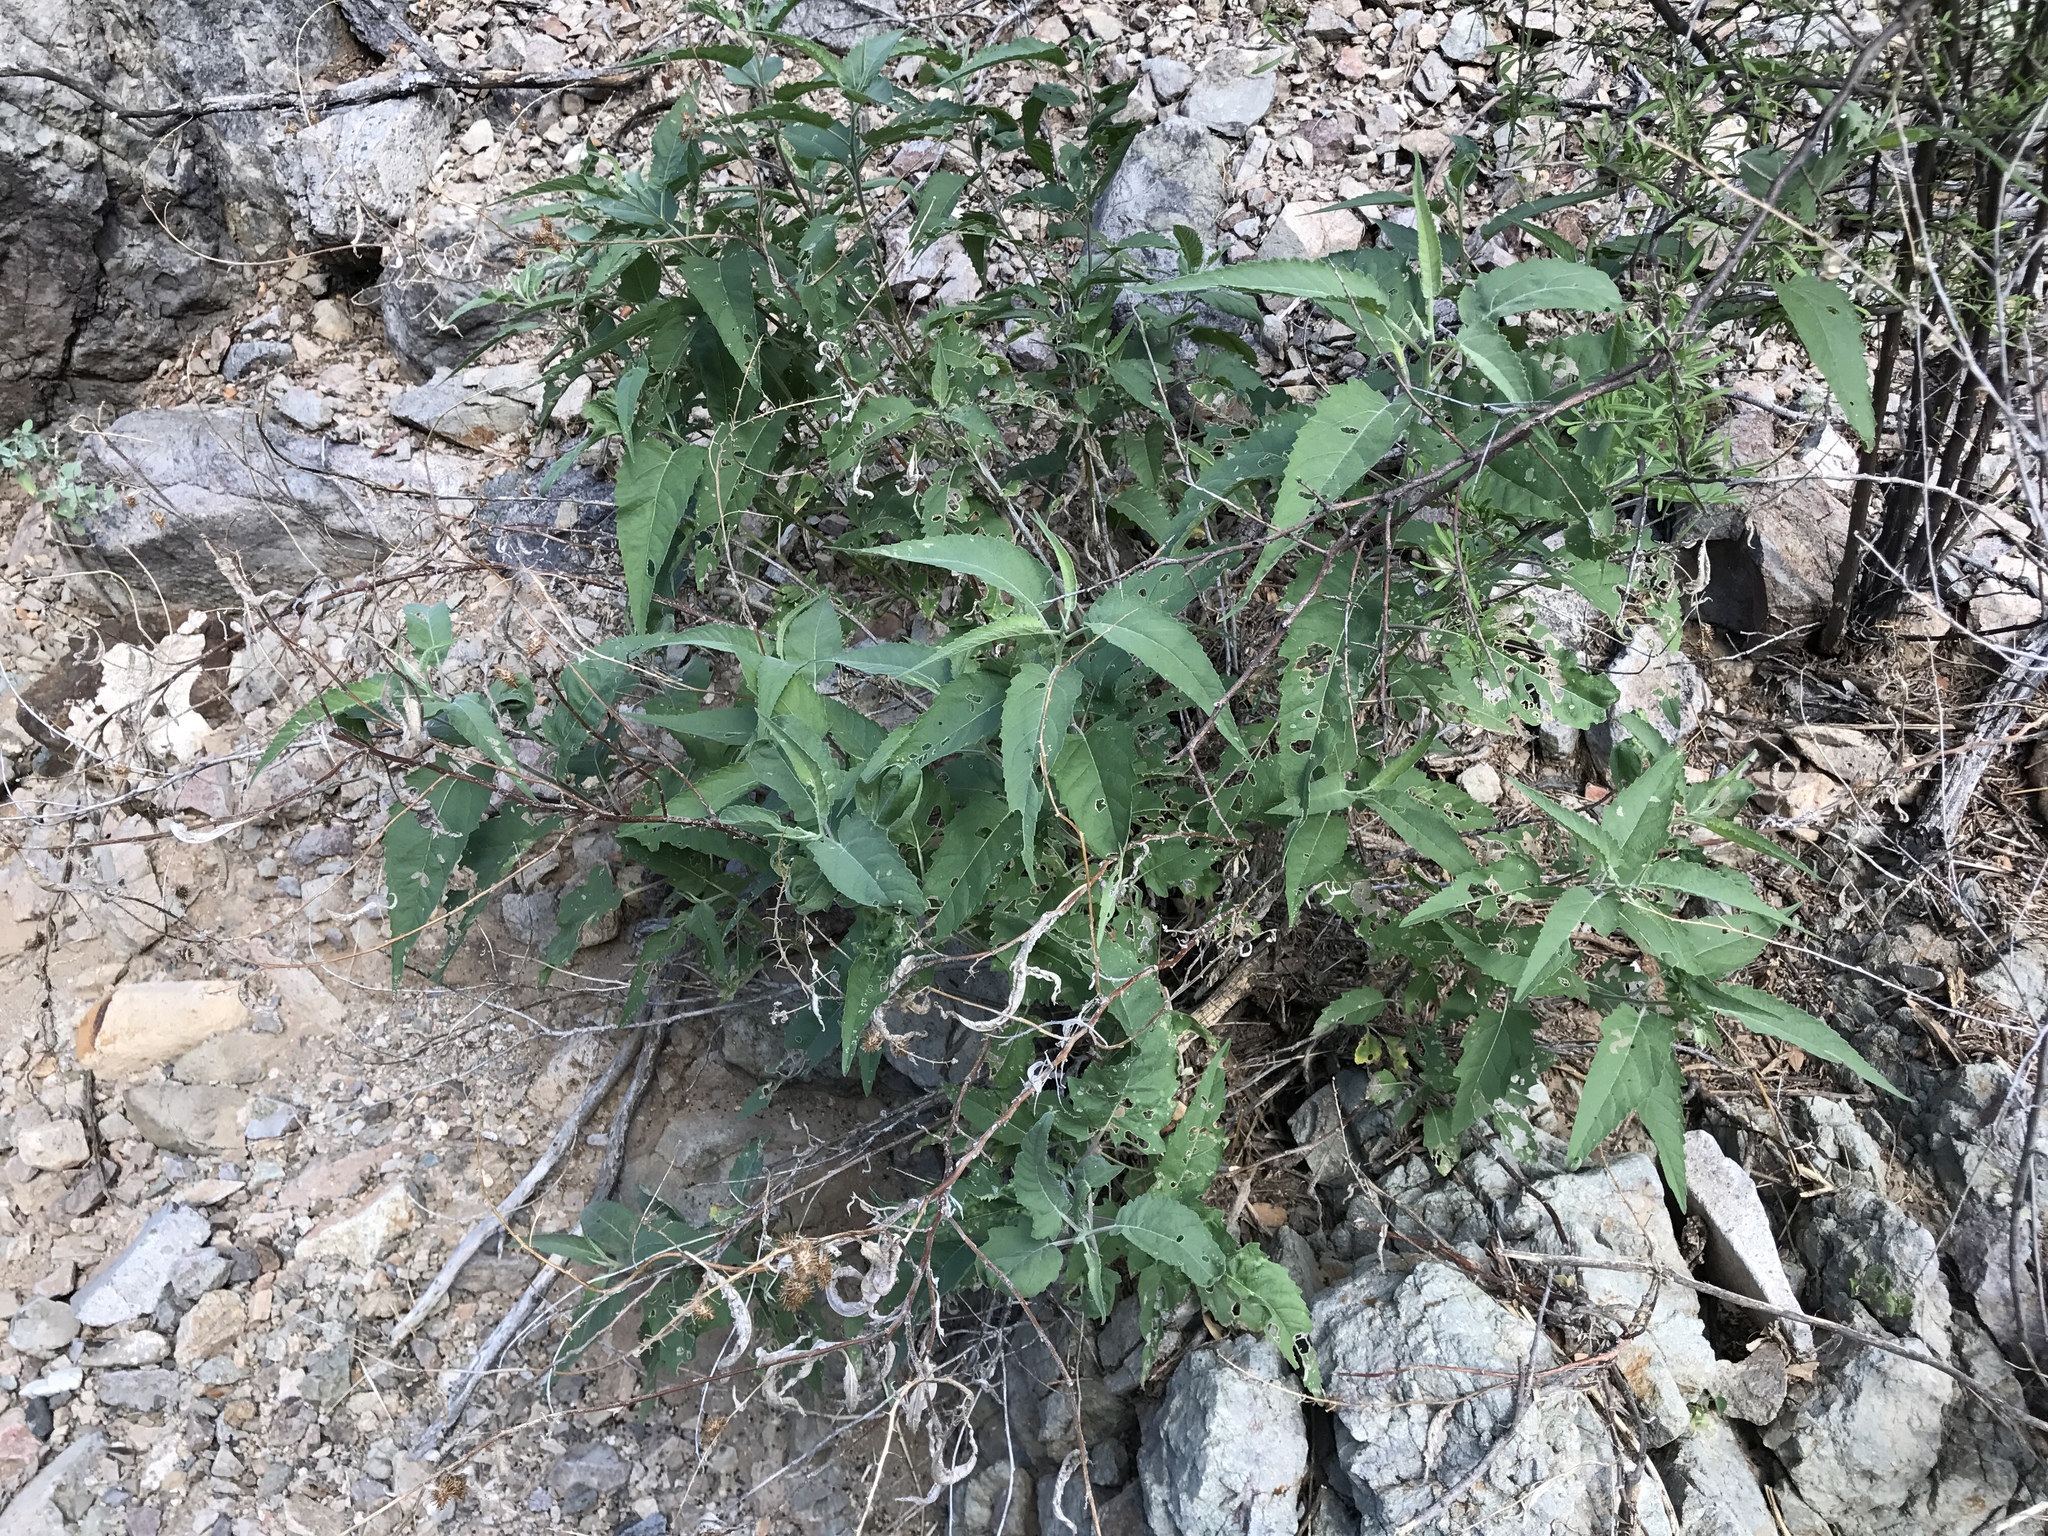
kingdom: Plantae
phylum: Tracheophyta
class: Magnoliopsida
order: Asterales
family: Asteraceae
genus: Ambrosia
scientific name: Ambrosia ambrosioides
